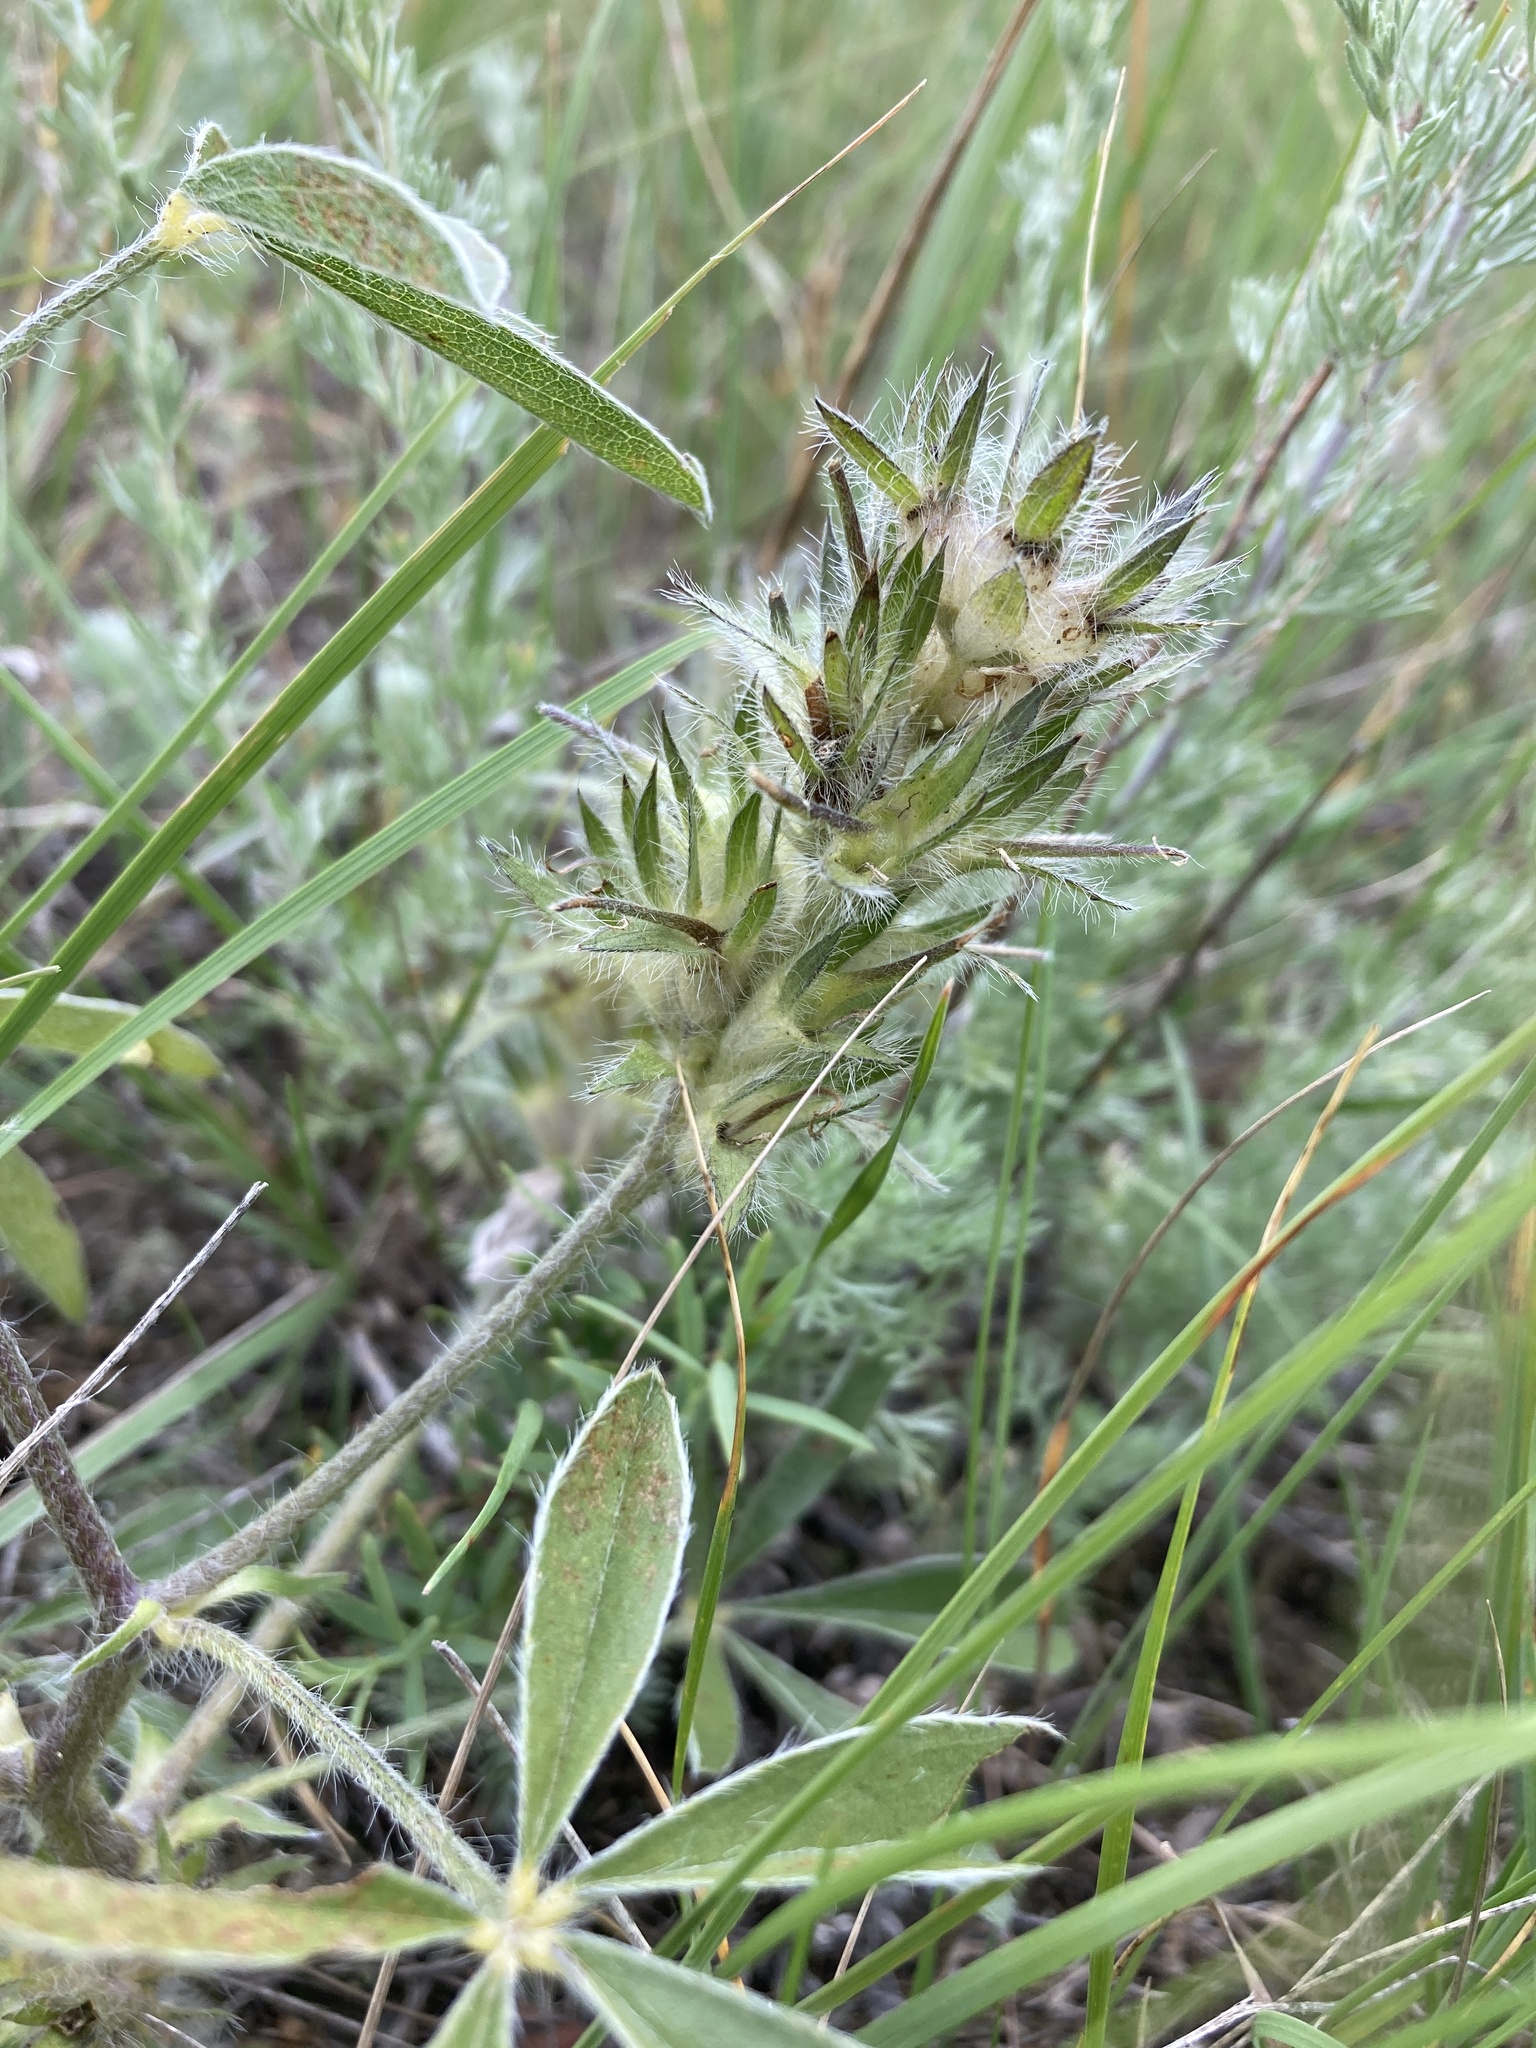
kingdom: Plantae
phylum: Tracheophyta
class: Magnoliopsida
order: Fabales
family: Fabaceae
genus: Pediomelum
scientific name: Pediomelum esculentum
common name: Indian-turnip
